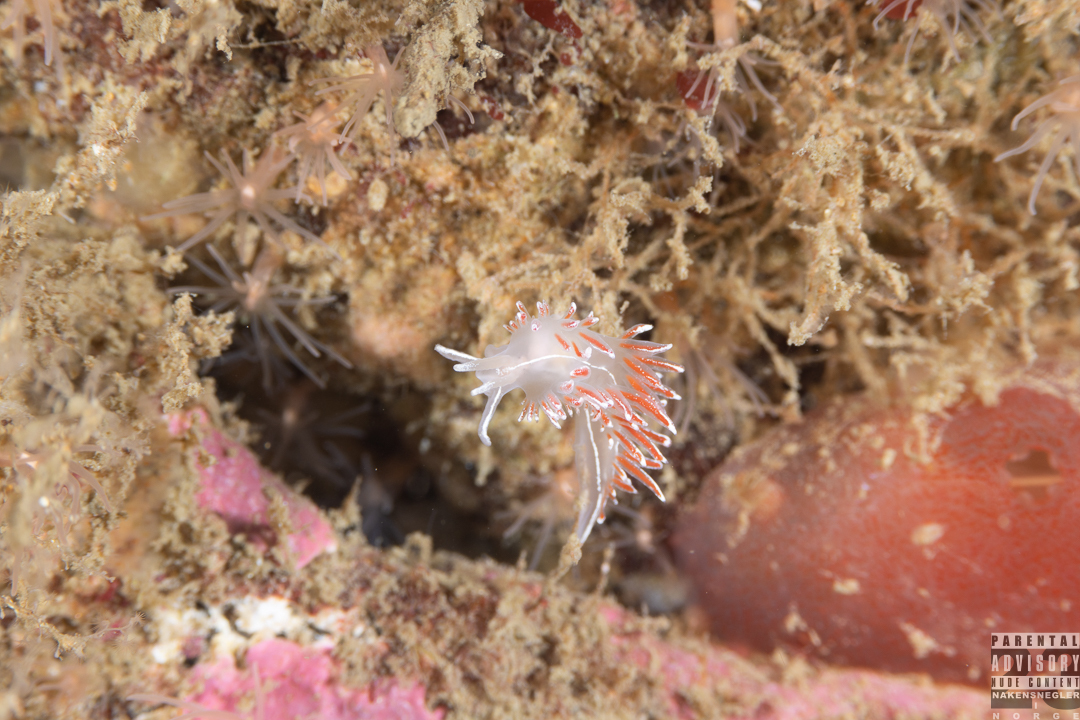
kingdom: Animalia
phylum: Mollusca
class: Gastropoda
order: Nudibranchia
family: Coryphellidae
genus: Coryphella
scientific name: Coryphella lineata
